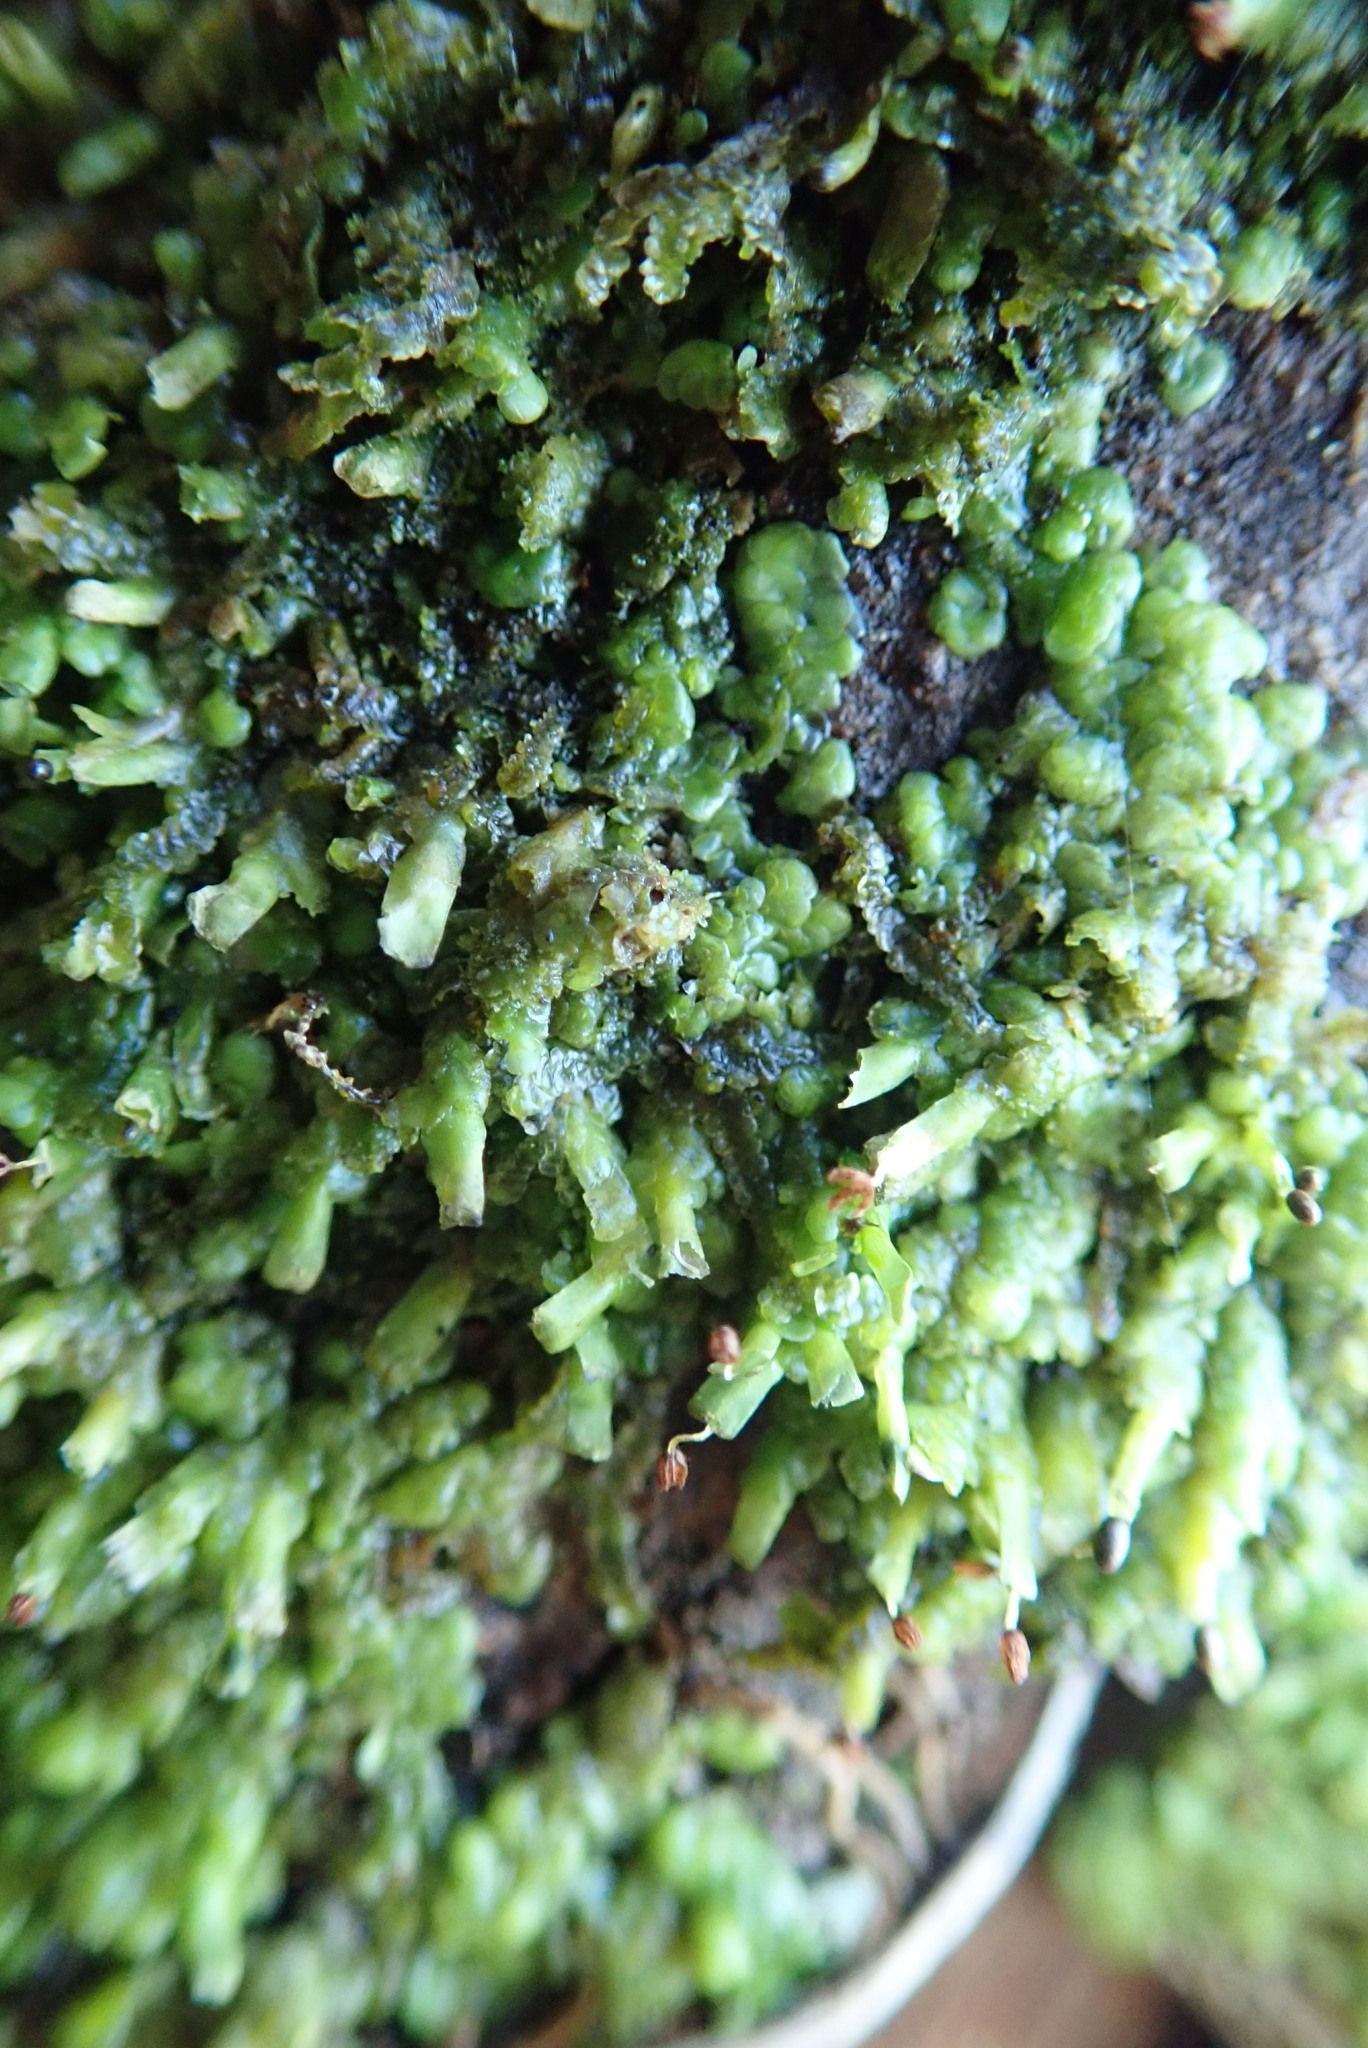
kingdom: Plantae
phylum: Marchantiophyta
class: Jungermanniopsida
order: Porellales
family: Radulaceae
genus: Radula
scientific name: Radula complanata
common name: Flat-leaved scalewort
